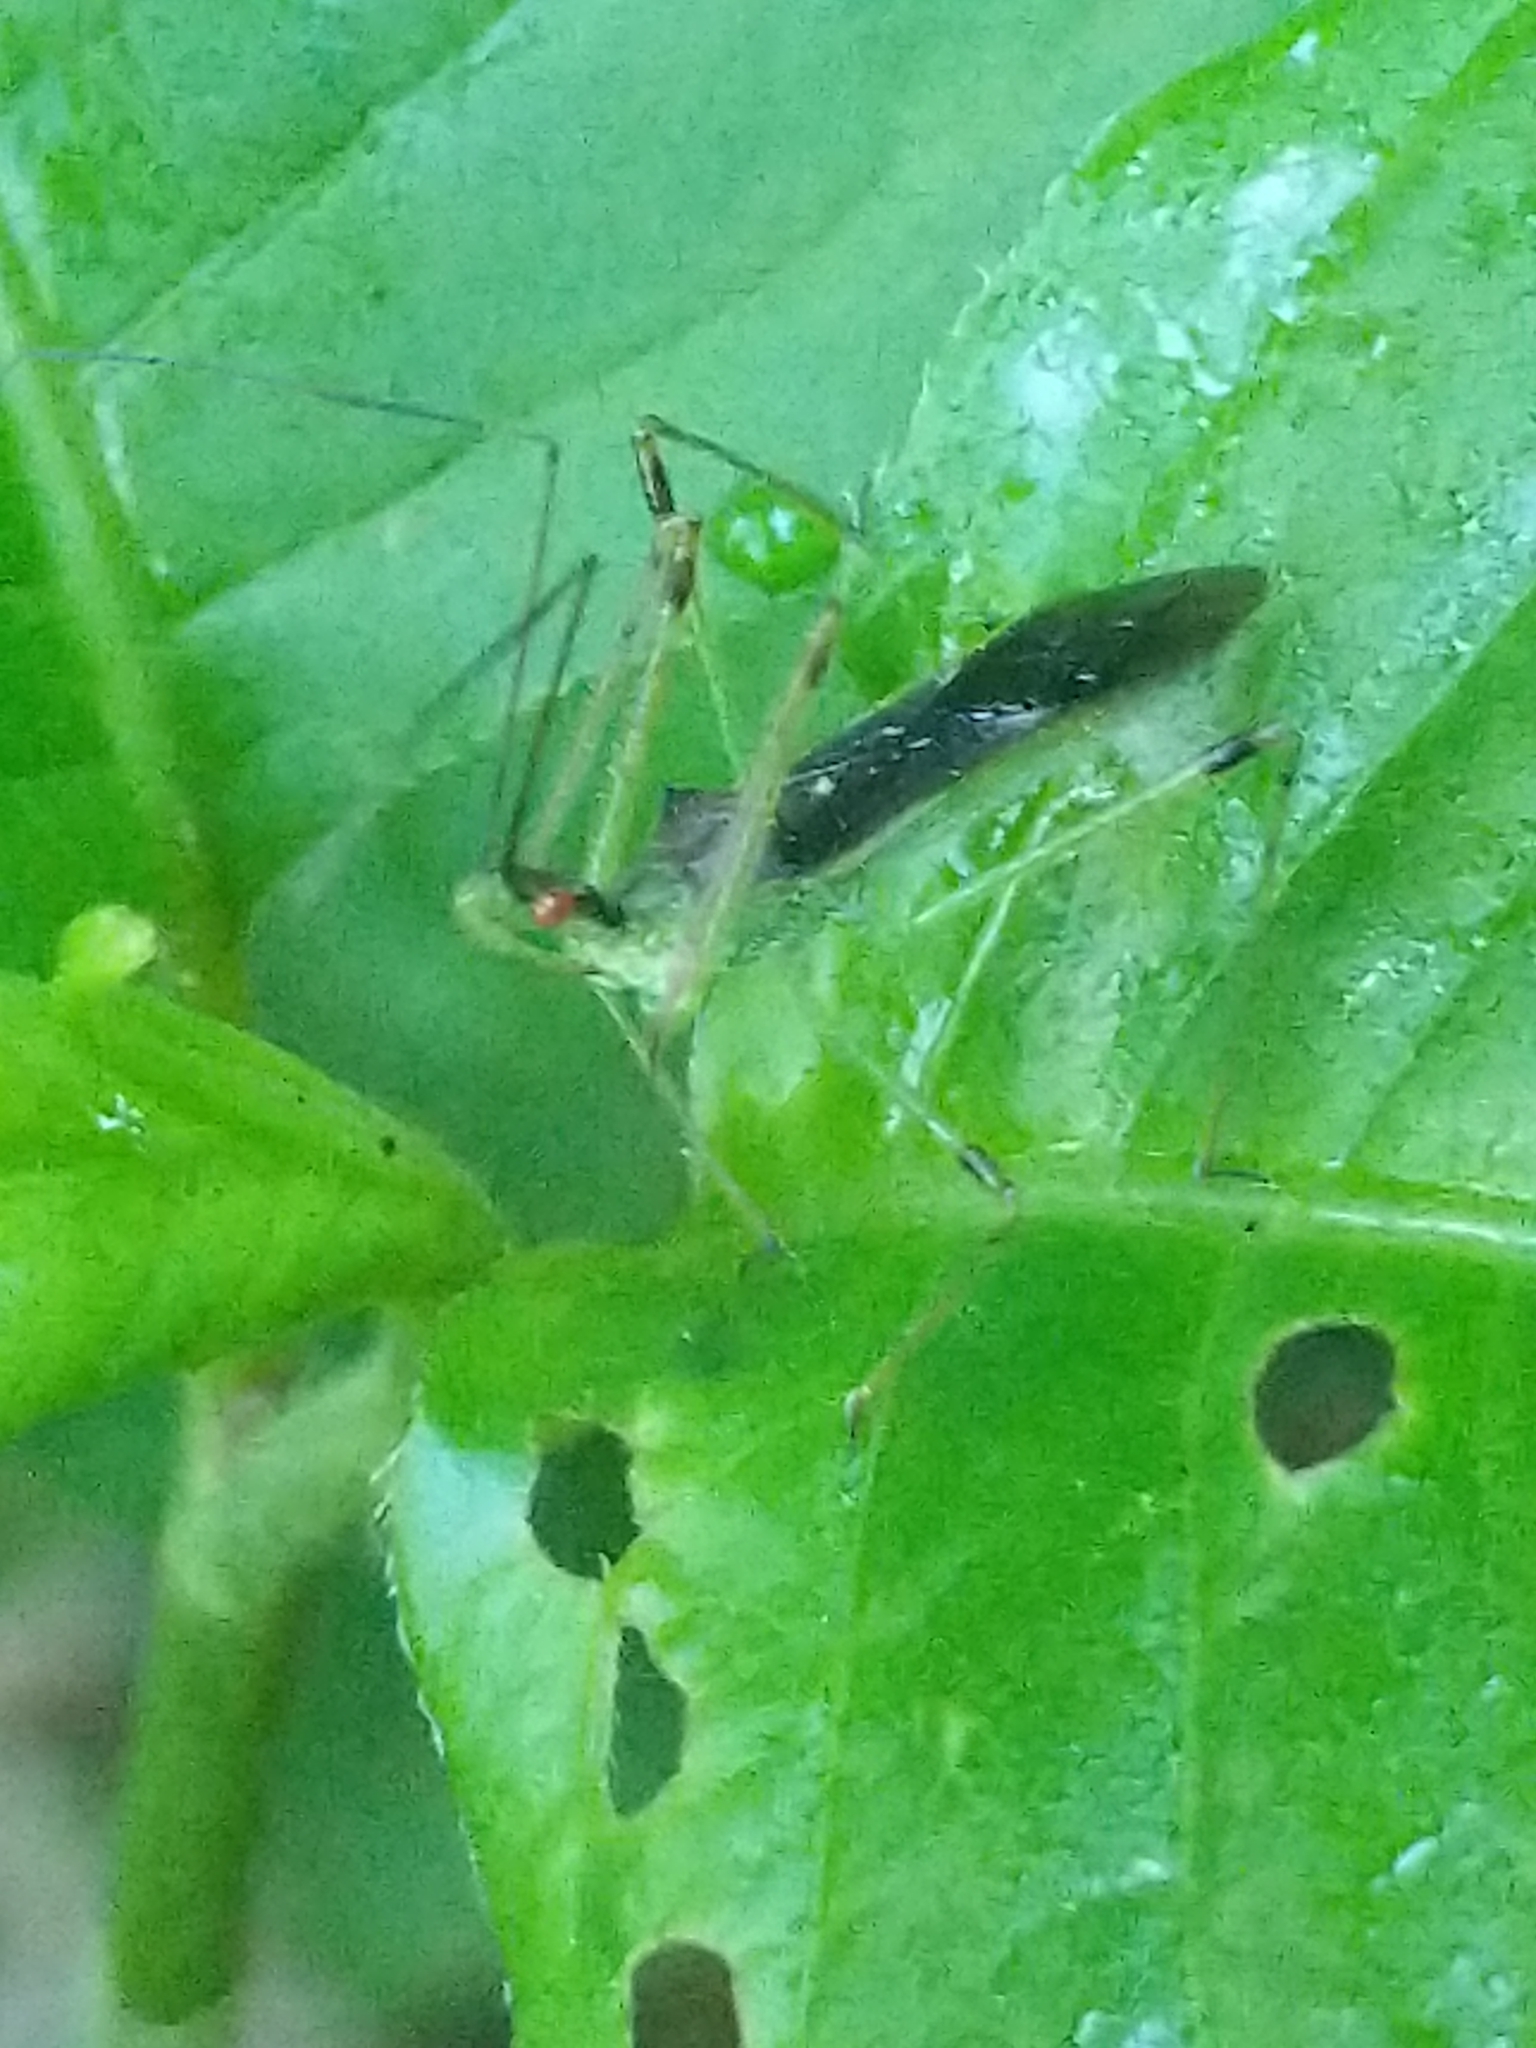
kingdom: Animalia
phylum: Arthropoda
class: Insecta
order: Hemiptera
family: Reduviidae
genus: Zelus
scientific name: Zelus luridus
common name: Pale green assassin bug
